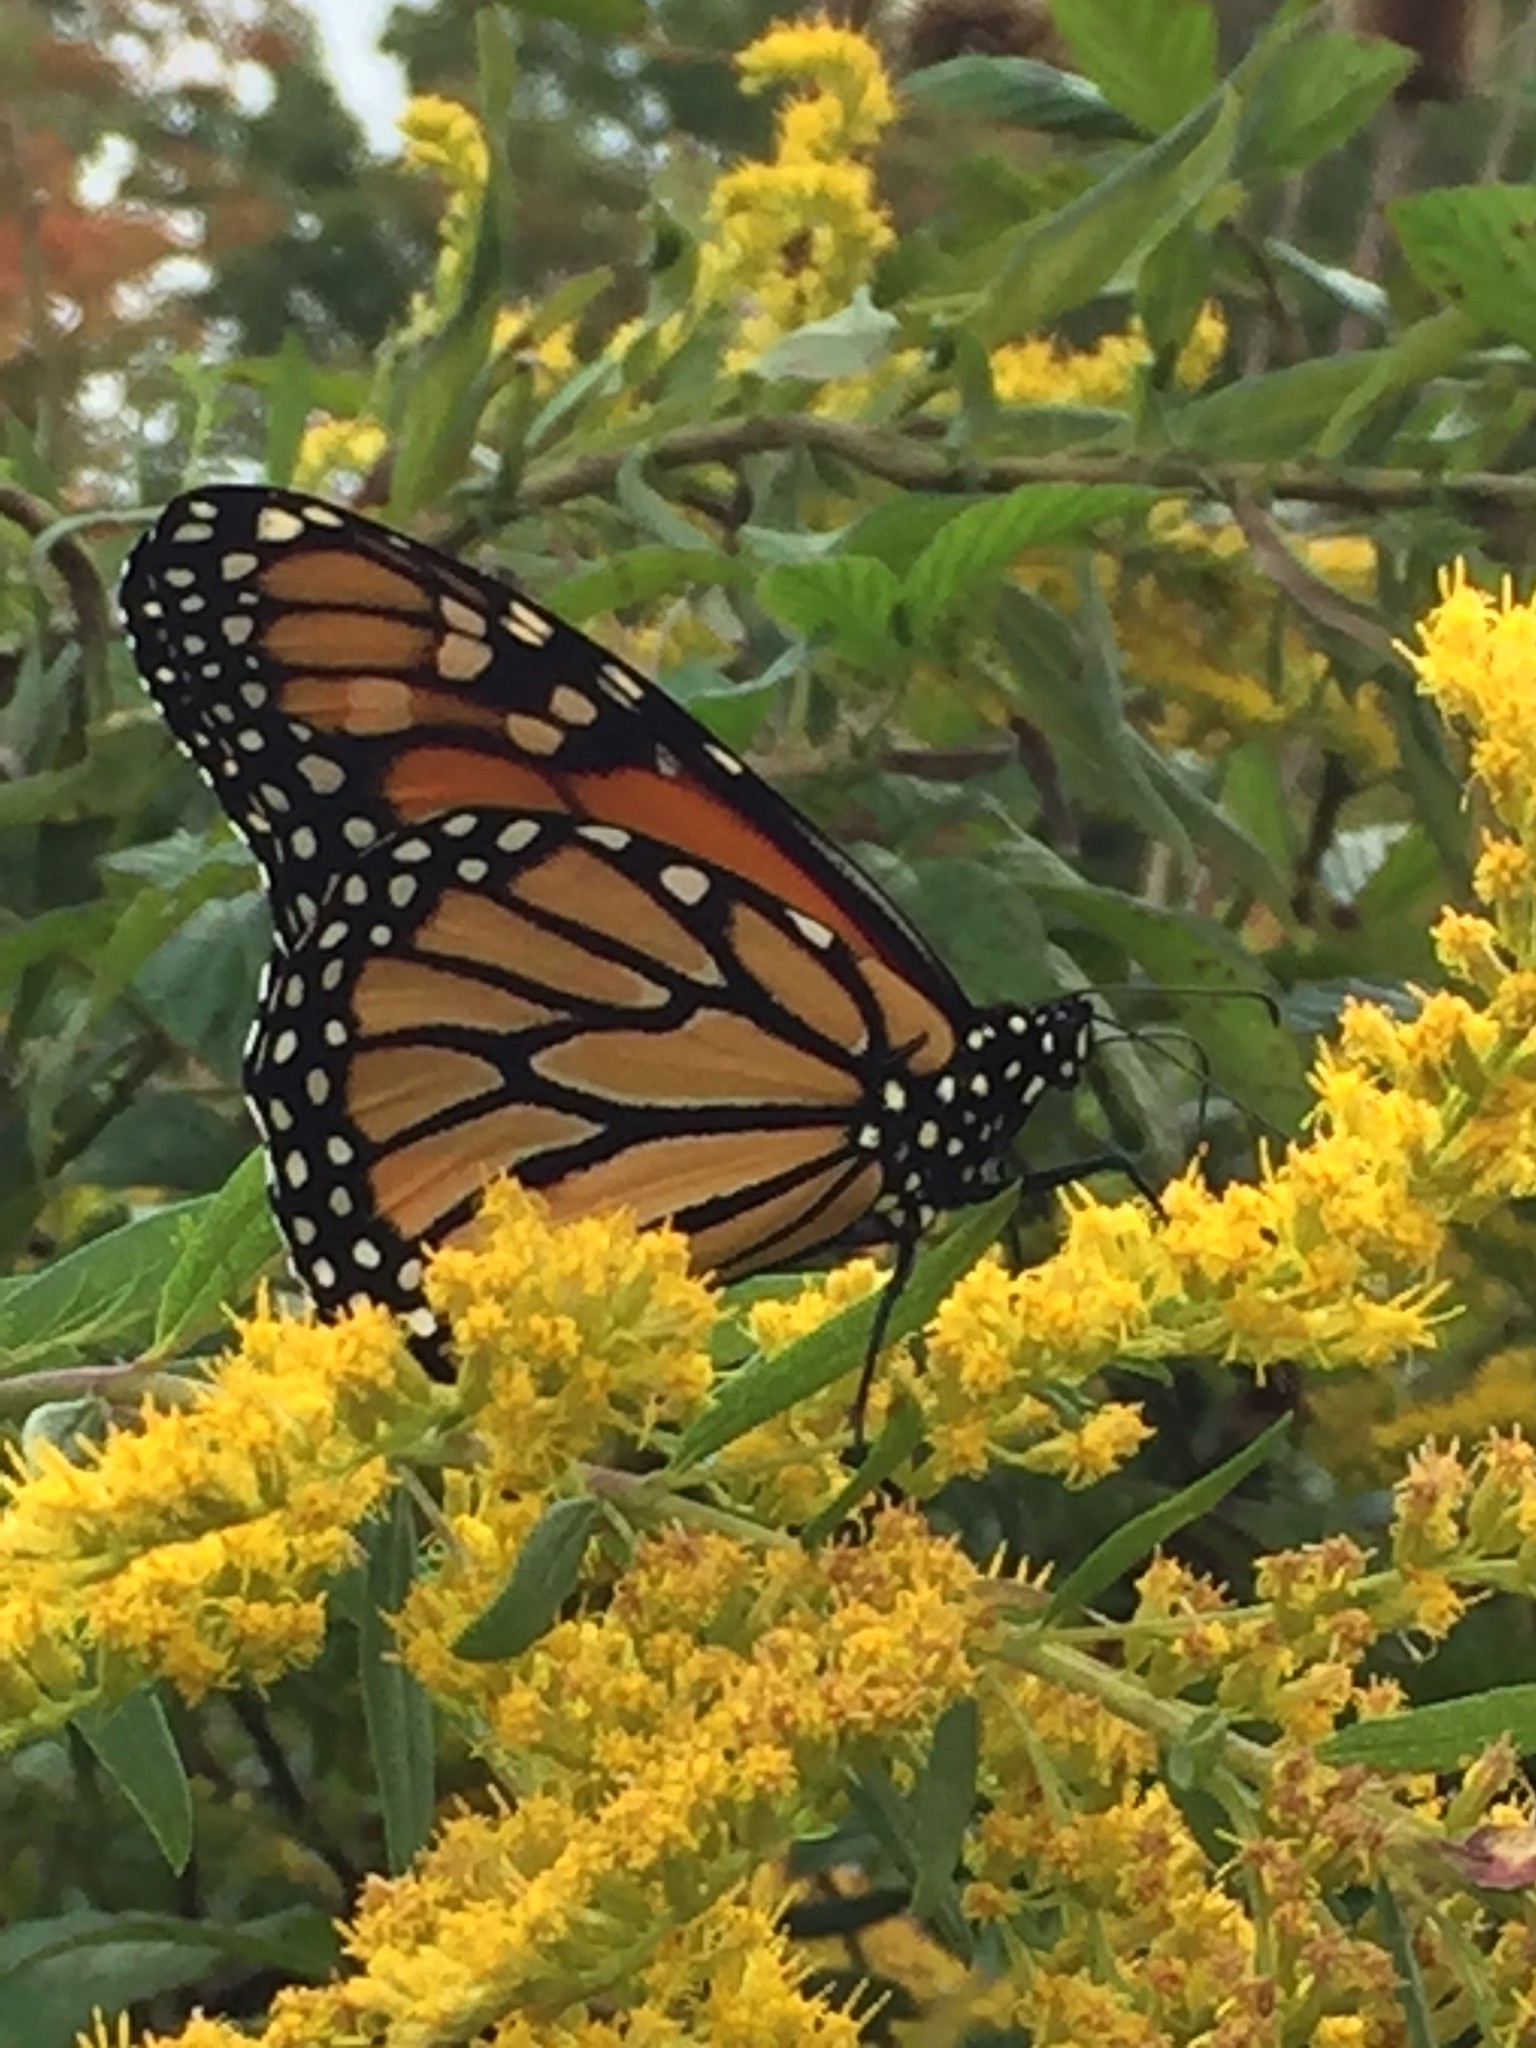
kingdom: Animalia
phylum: Arthropoda
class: Insecta
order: Lepidoptera
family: Nymphalidae
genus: Danaus
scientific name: Danaus plexippus
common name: Monarch
